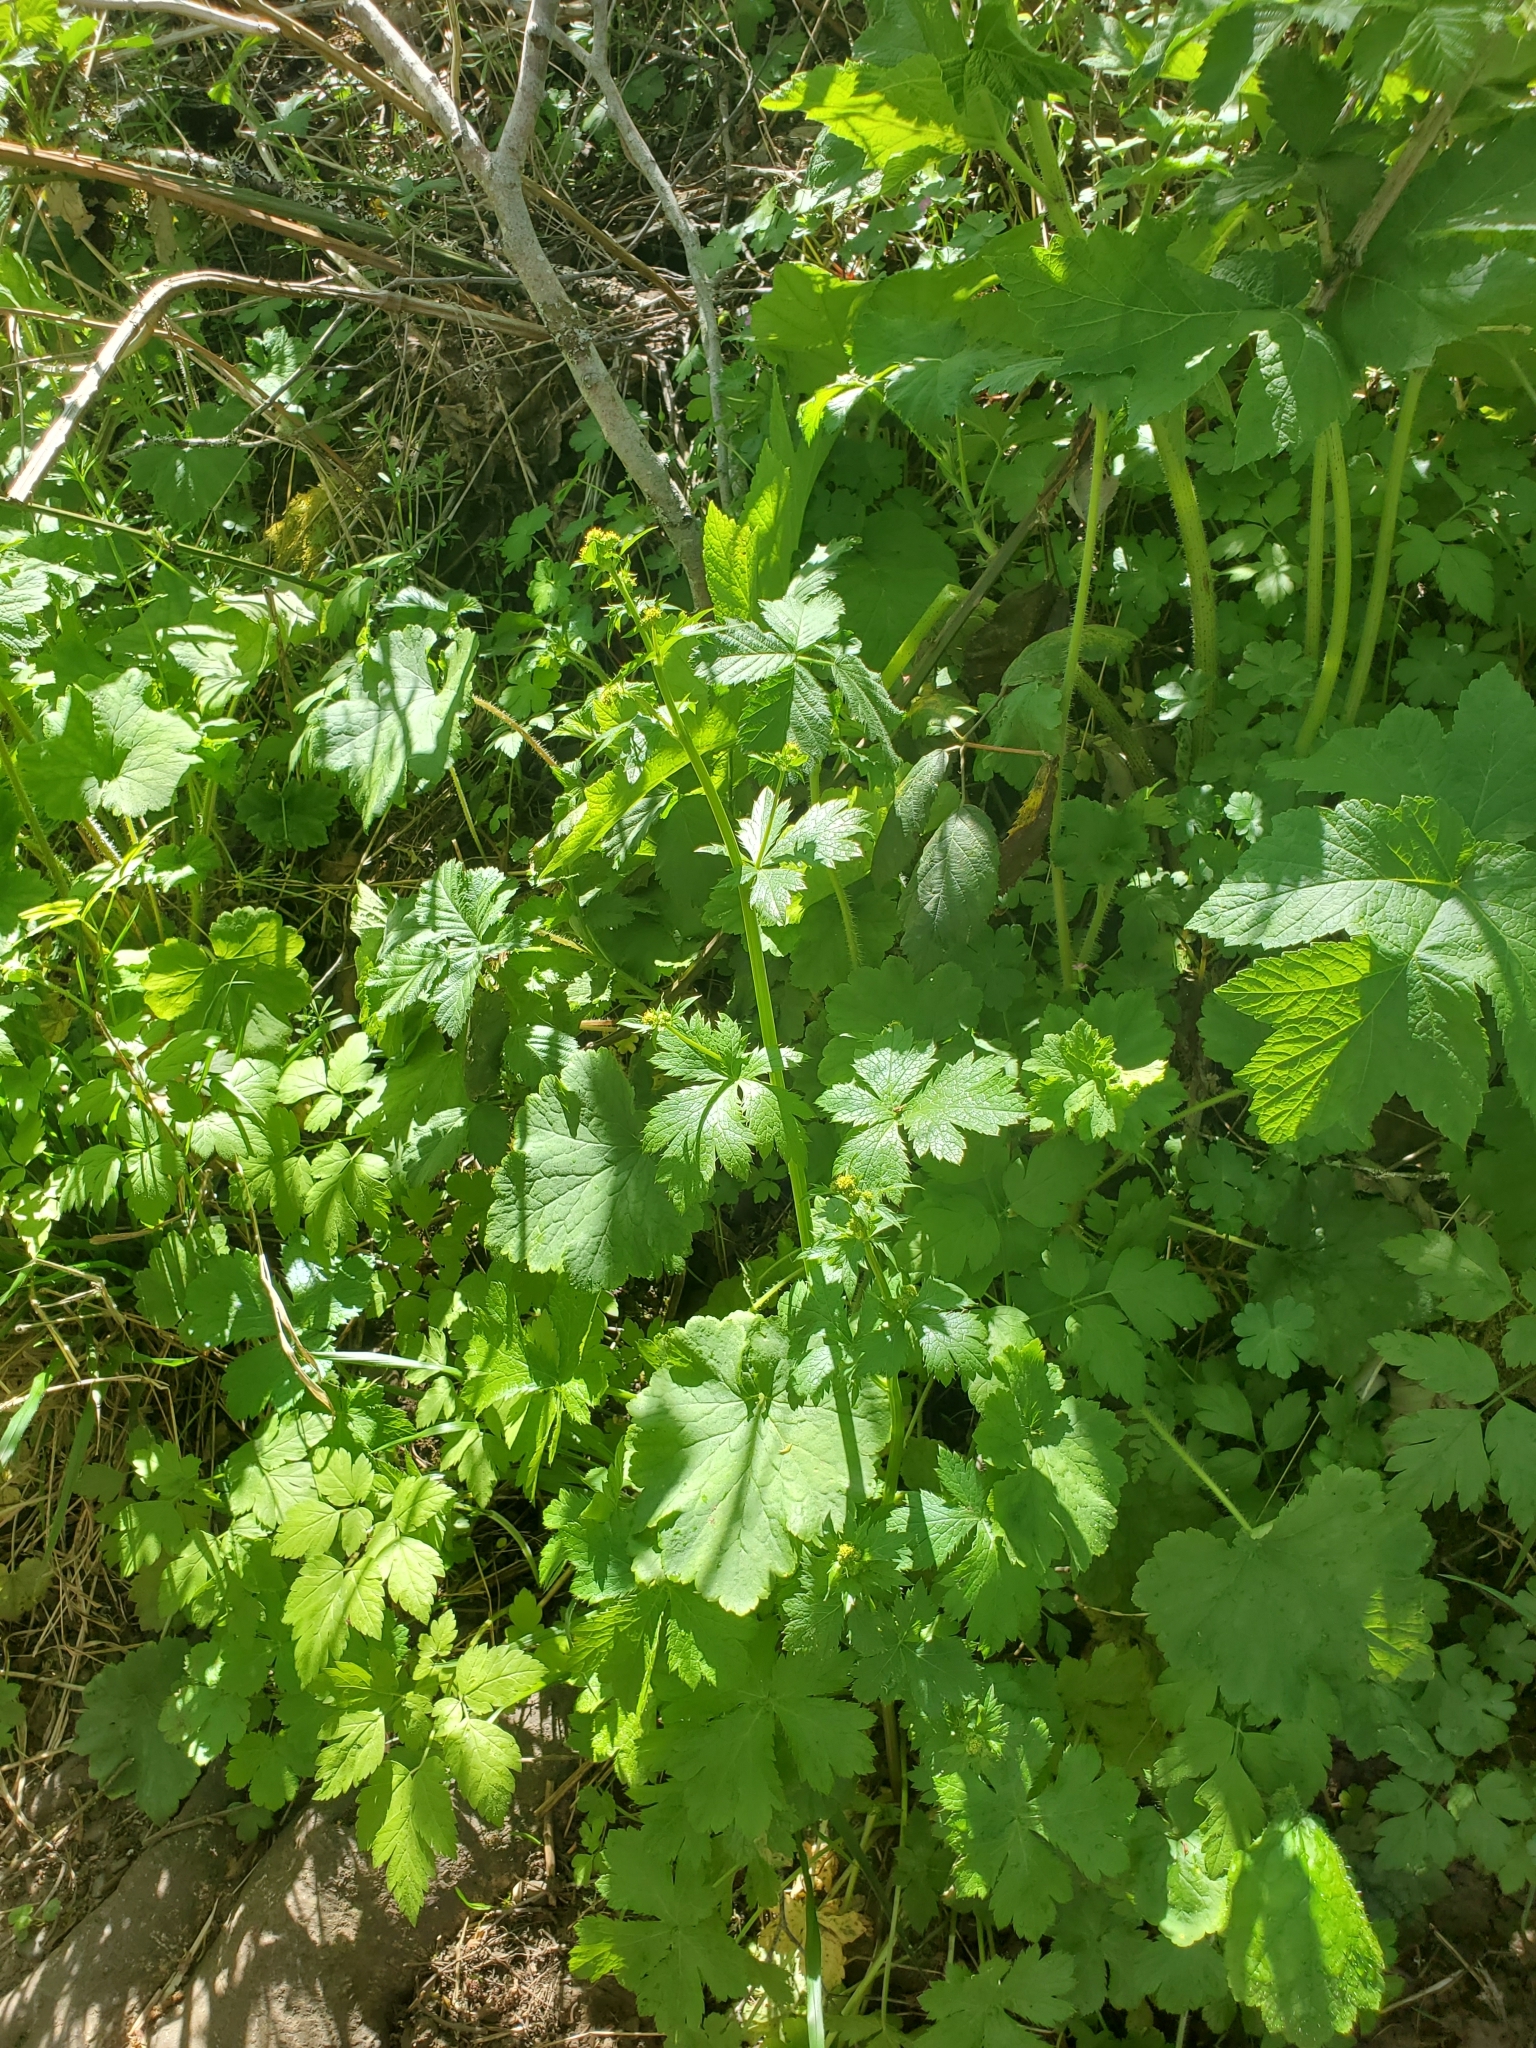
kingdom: Plantae
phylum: Tracheophyta
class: Magnoliopsida
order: Apiales
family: Apiaceae
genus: Sanicula
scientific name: Sanicula crassicaulis
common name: Western snakeroot
